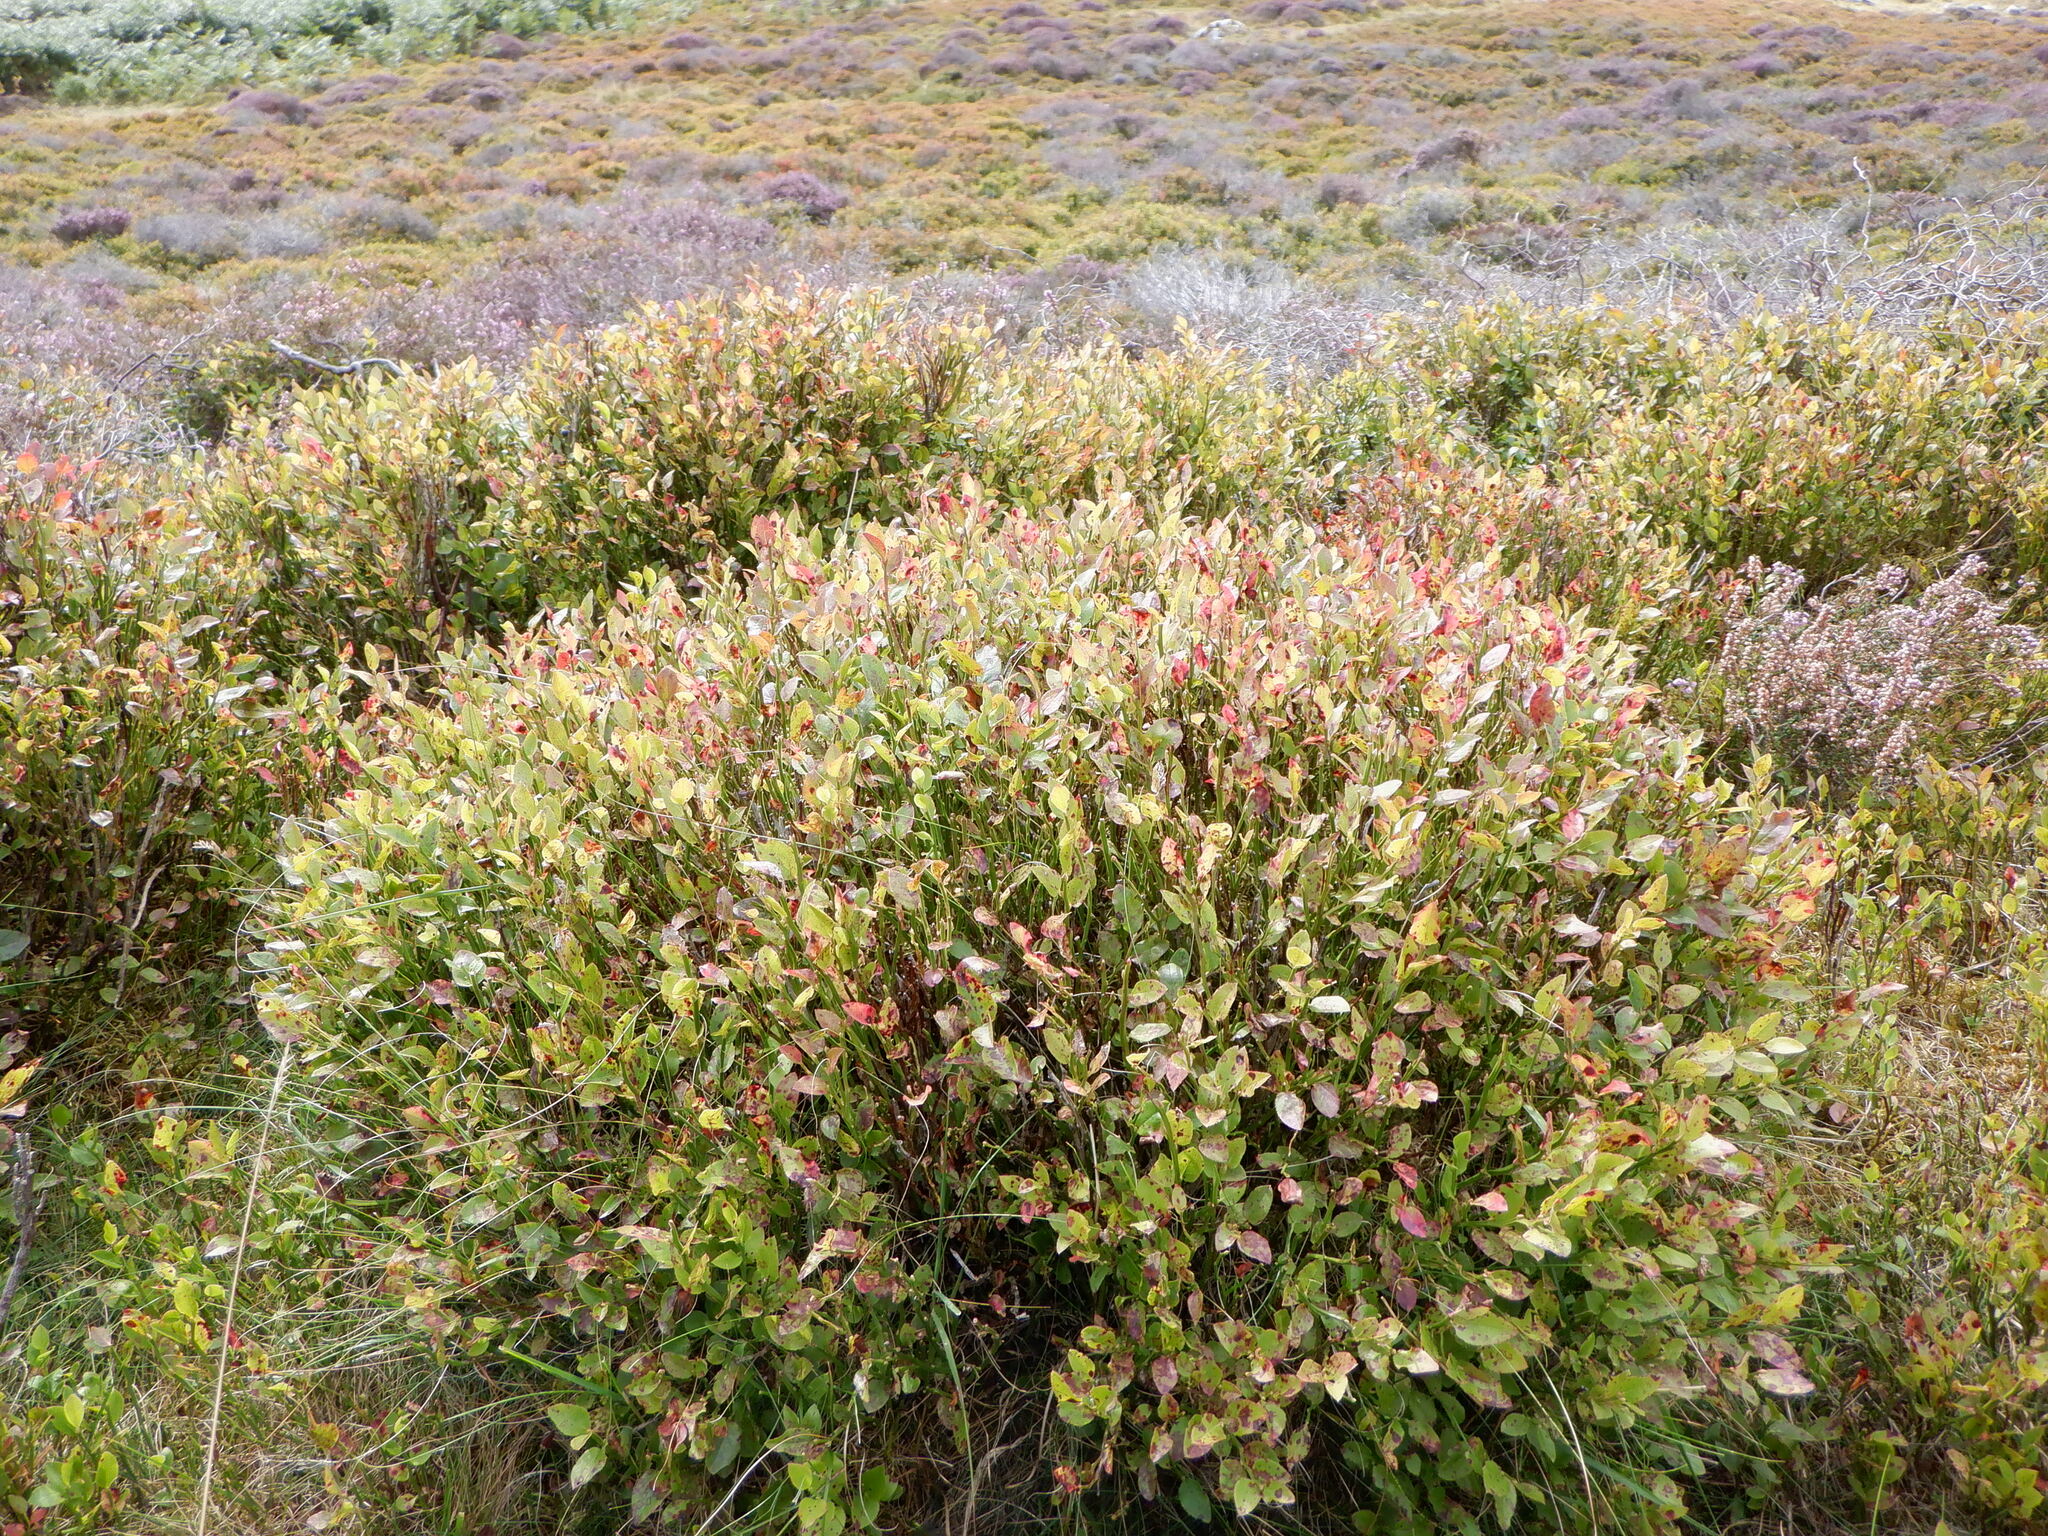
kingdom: Plantae
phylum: Tracheophyta
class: Magnoliopsida
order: Ericales
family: Ericaceae
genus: Vaccinium
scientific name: Vaccinium myrtillus
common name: Bilberry
